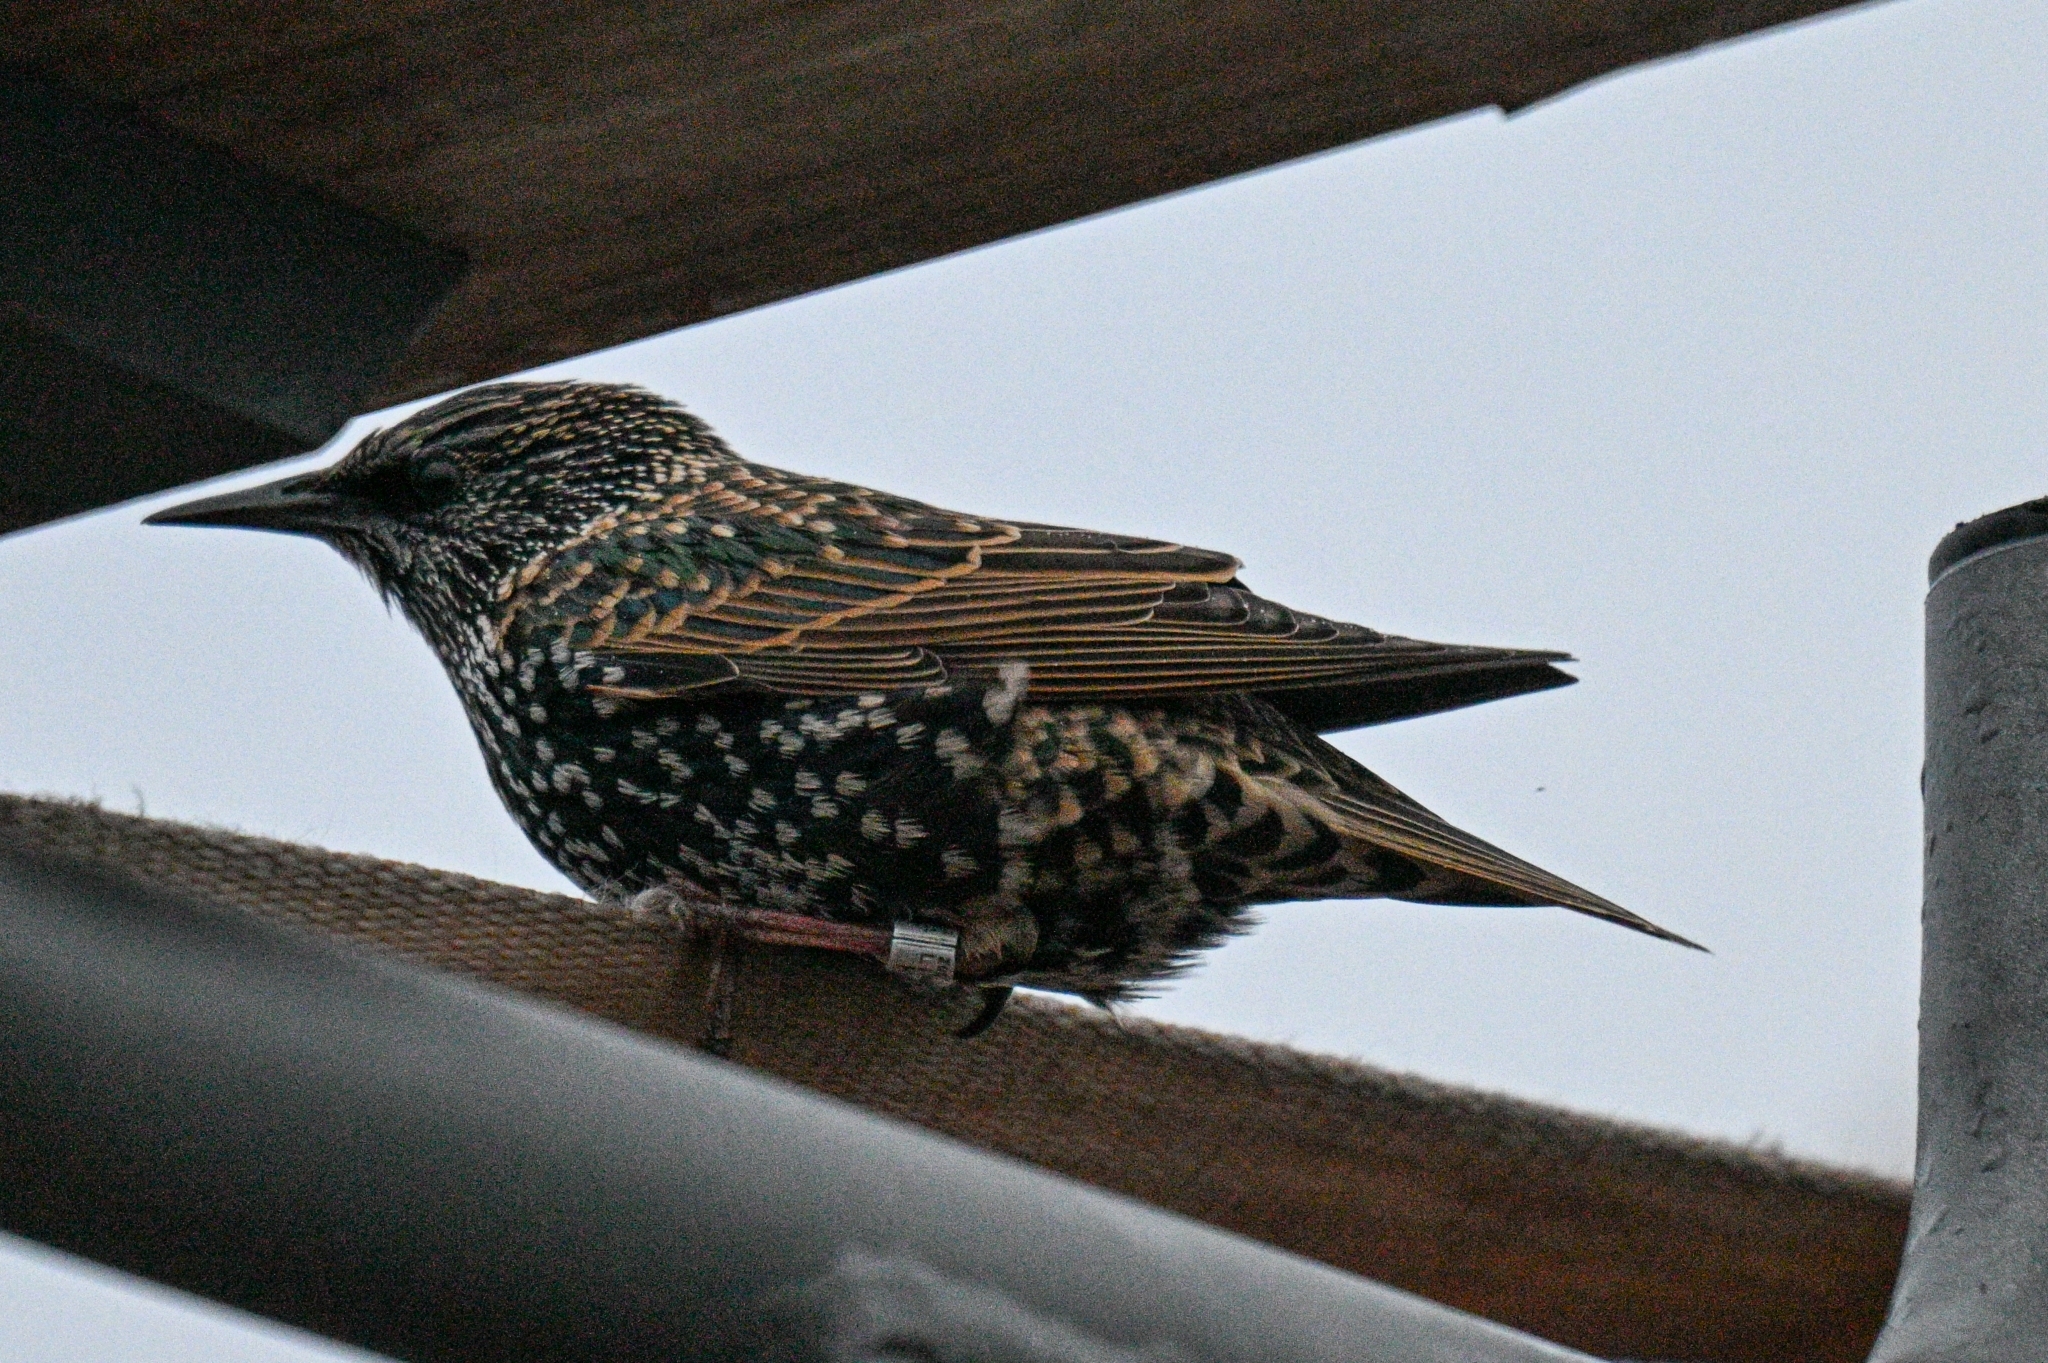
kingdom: Animalia
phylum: Chordata
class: Aves
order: Passeriformes
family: Sturnidae
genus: Sturnus
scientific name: Sturnus vulgaris
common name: Common starling
